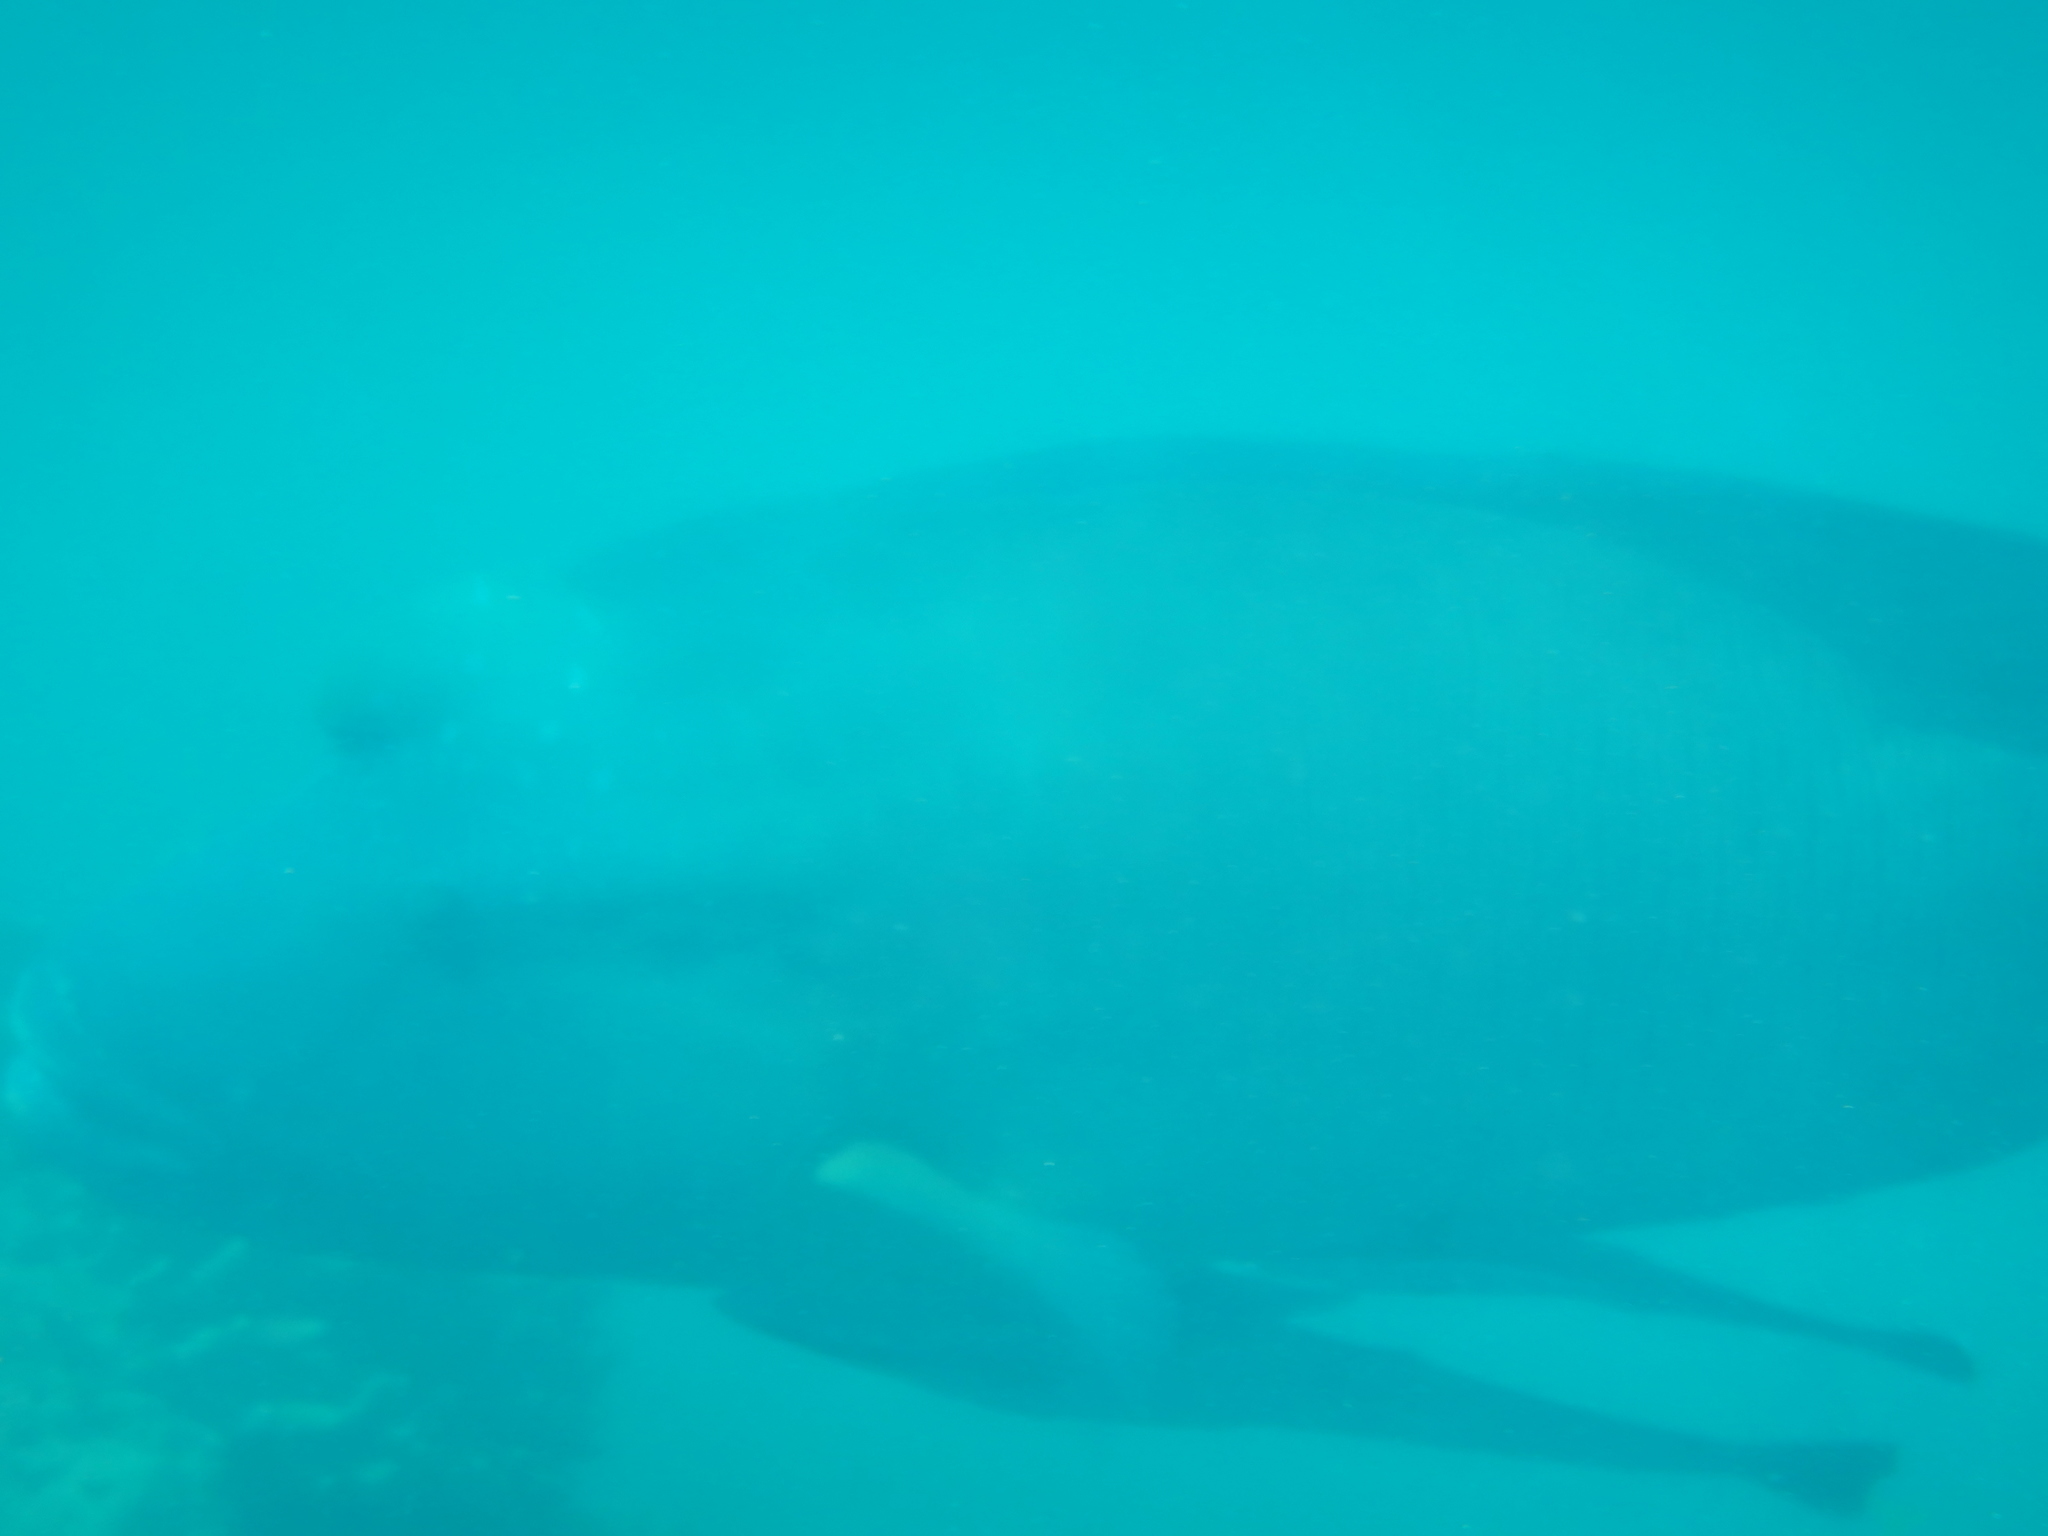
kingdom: Animalia
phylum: Chordata
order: Perciformes
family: Labridae
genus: Cheilinus
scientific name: Cheilinus undulatus
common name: Humphead wrasse
